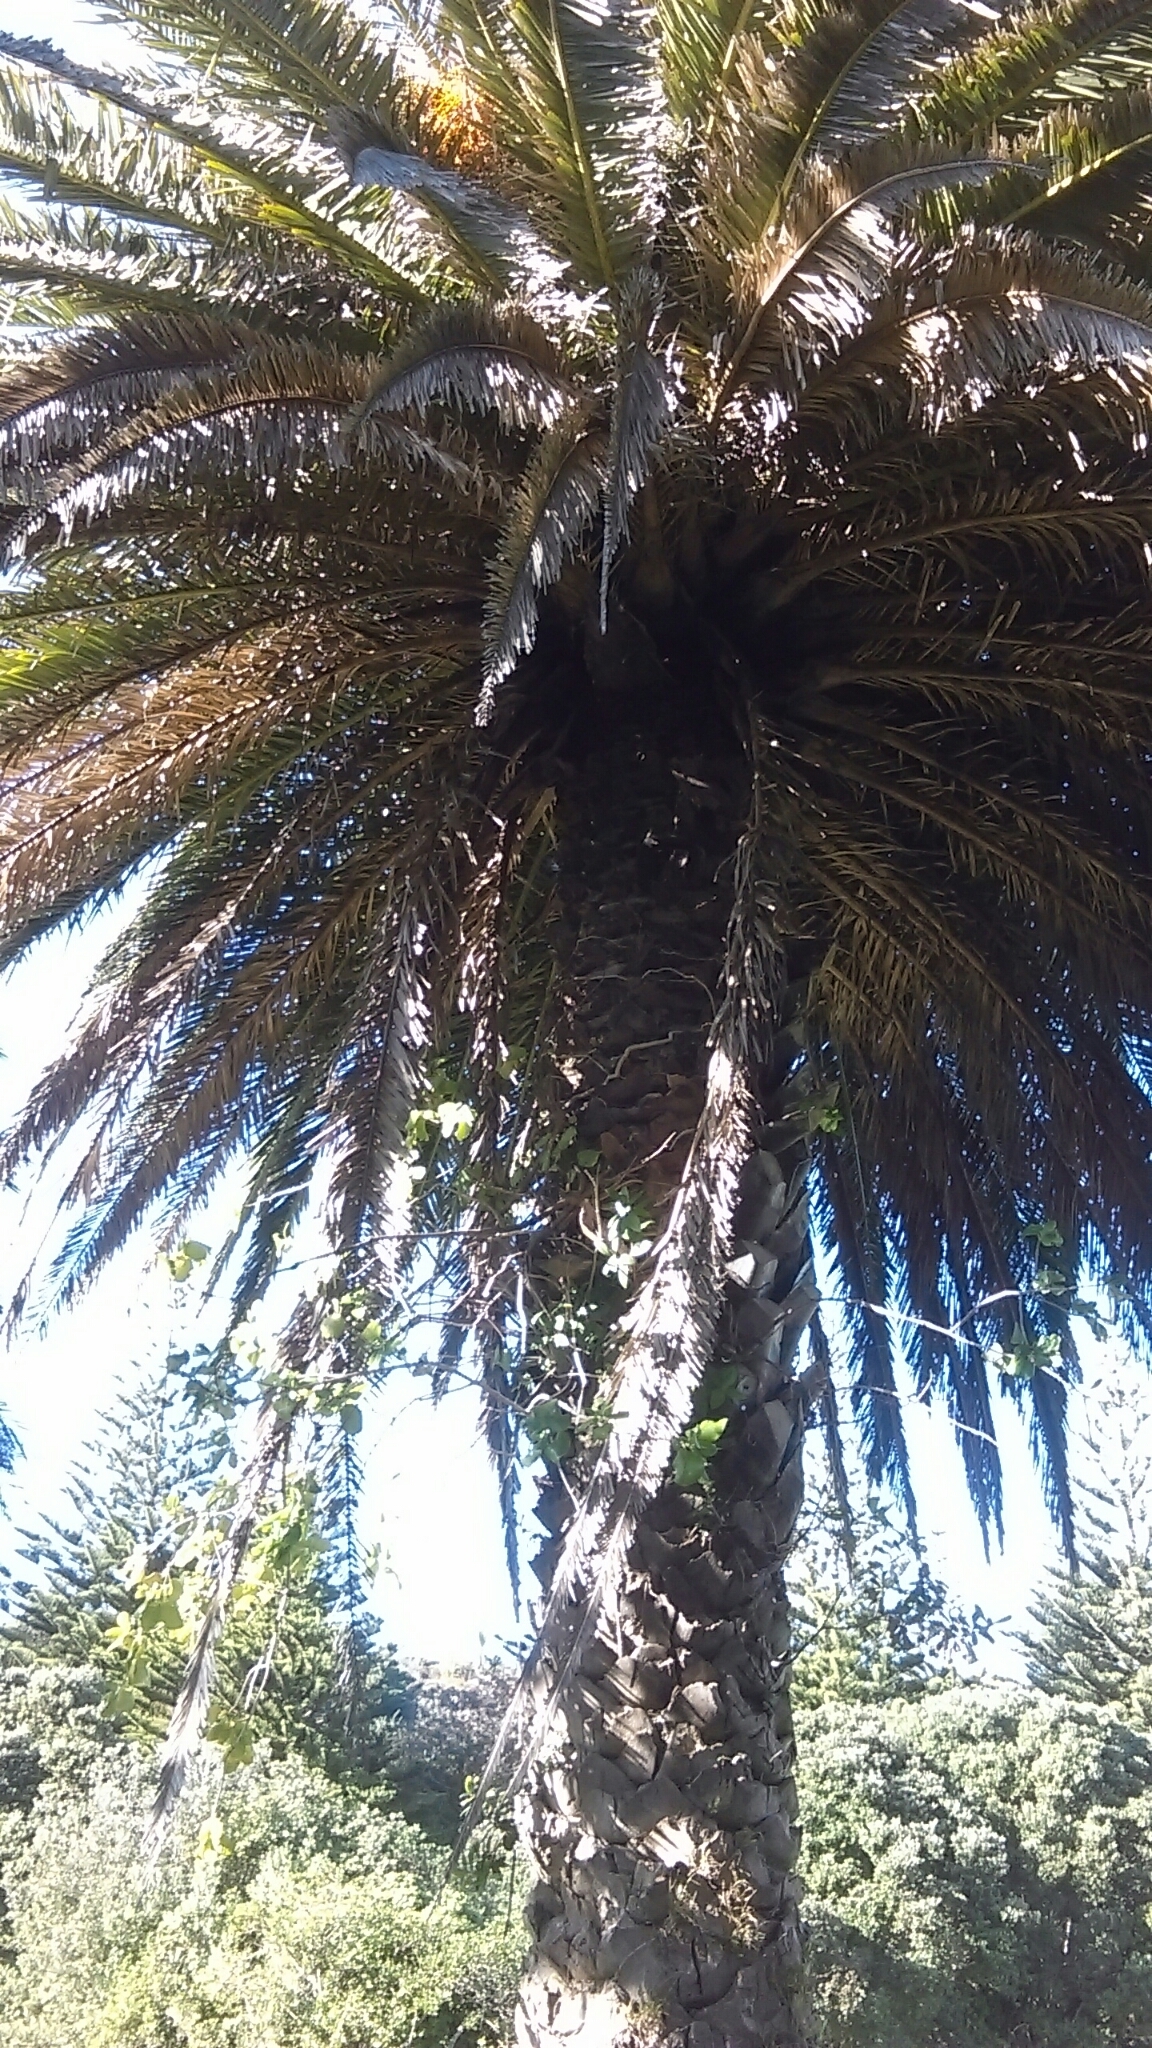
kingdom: Plantae
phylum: Tracheophyta
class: Liliopsida
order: Arecales
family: Arecaceae
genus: Phoenix
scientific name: Phoenix canariensis
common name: Canary island date palm
